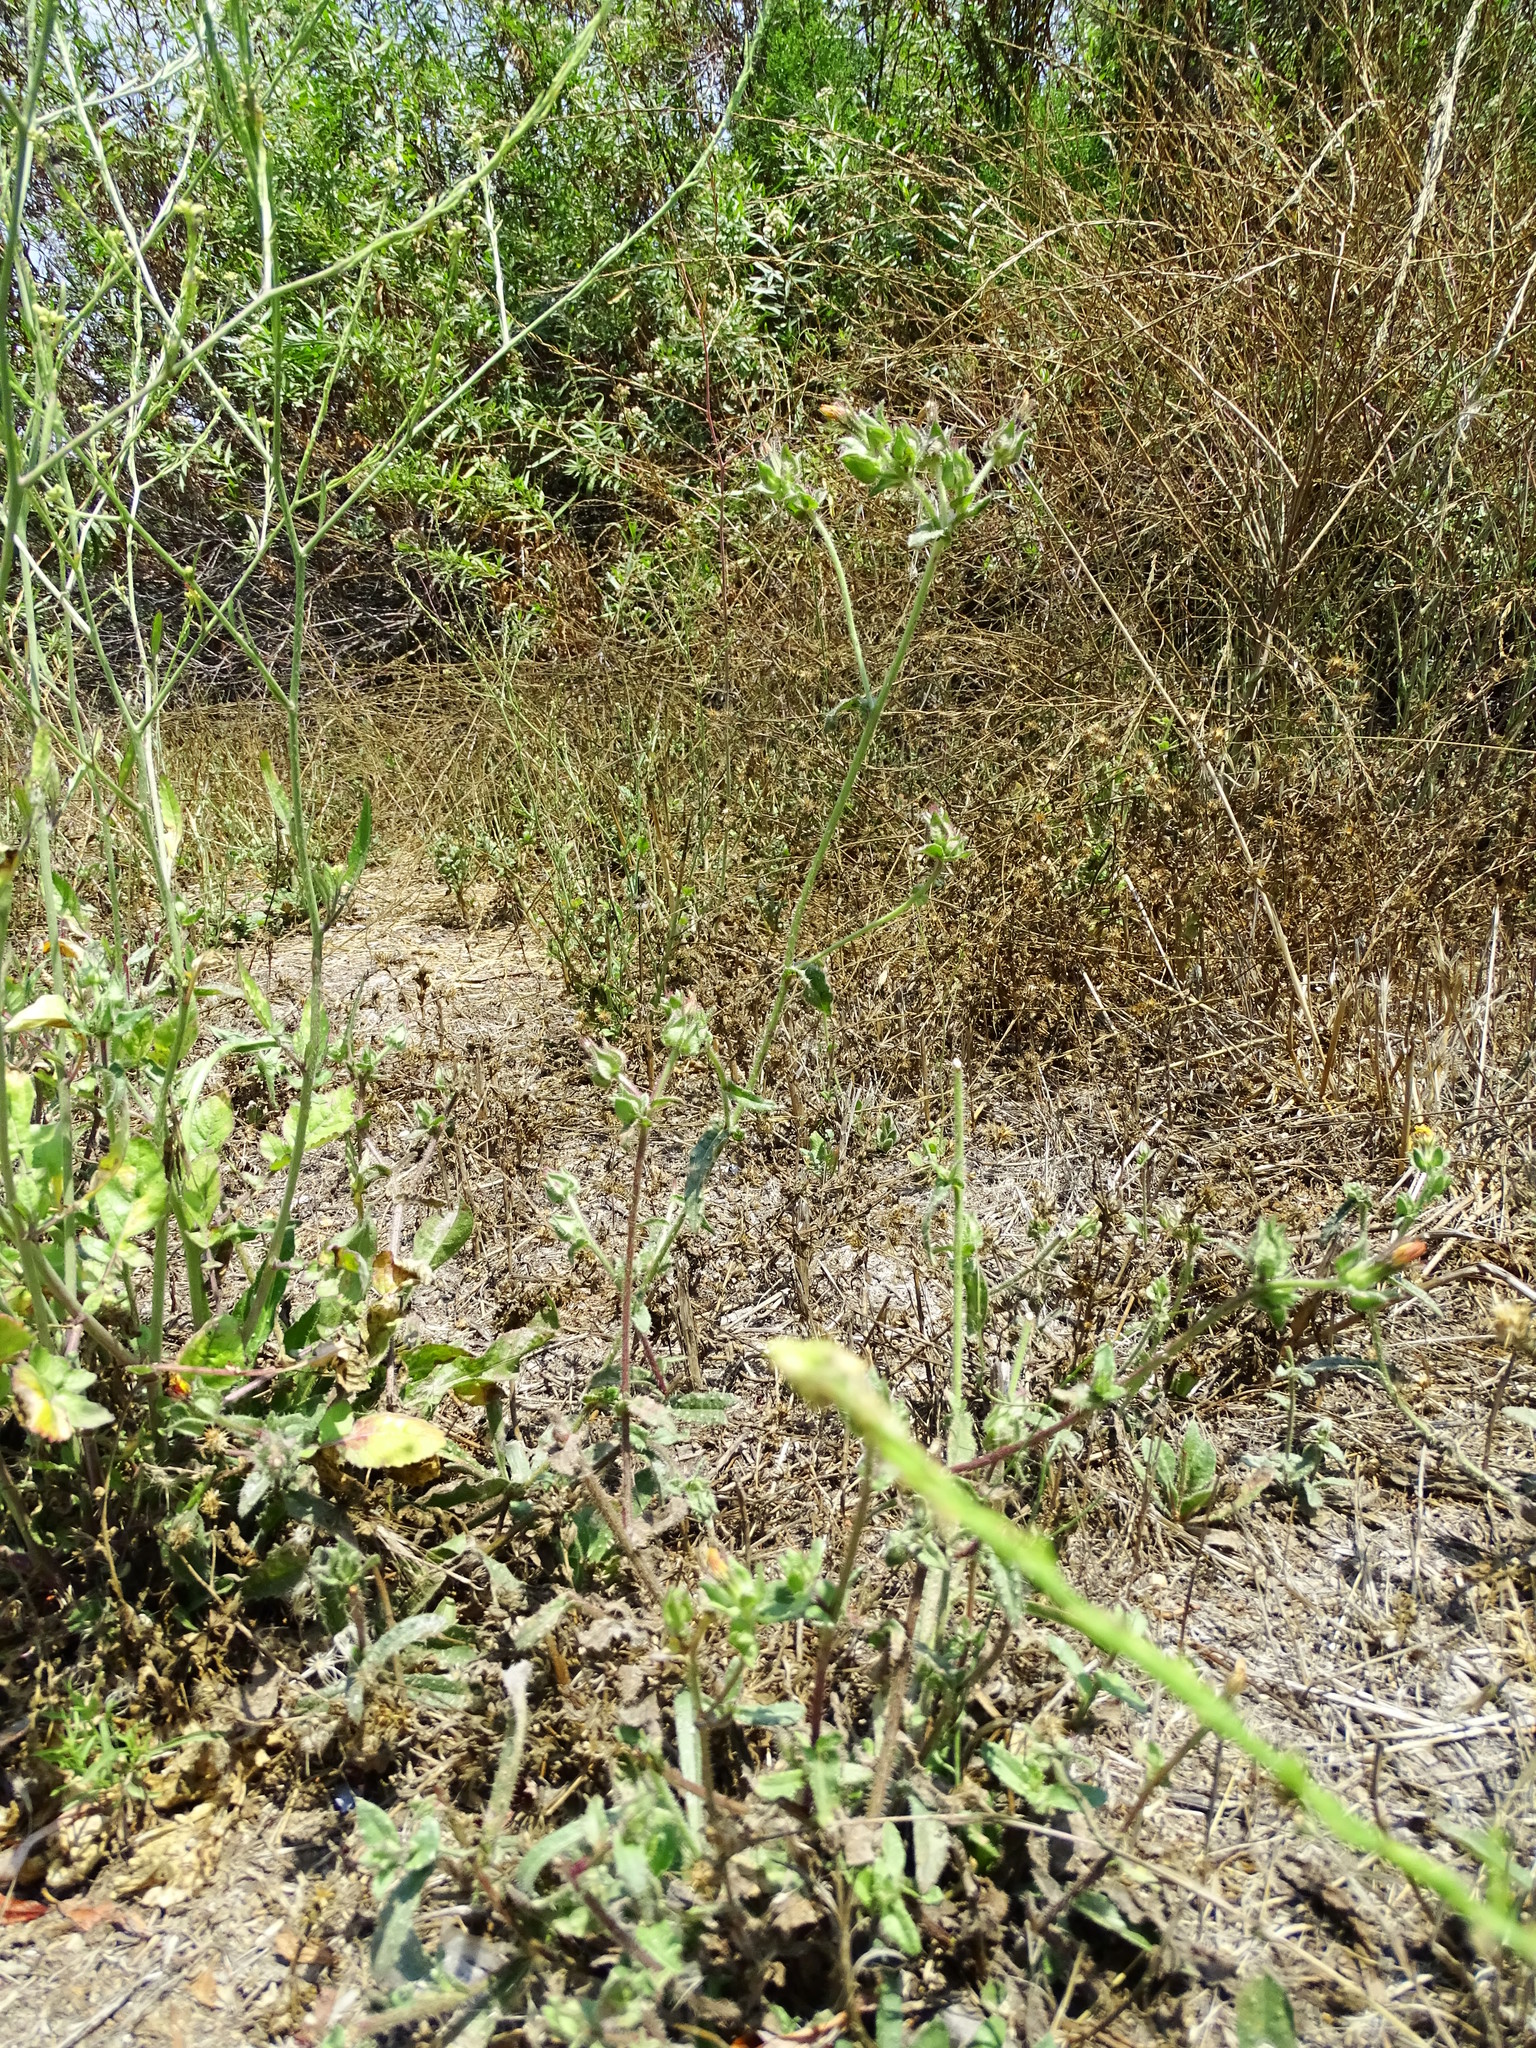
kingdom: Plantae
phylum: Tracheophyta
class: Magnoliopsida
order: Asterales
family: Asteraceae
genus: Helminthotheca
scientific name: Helminthotheca echioides
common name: Ox-tongue
